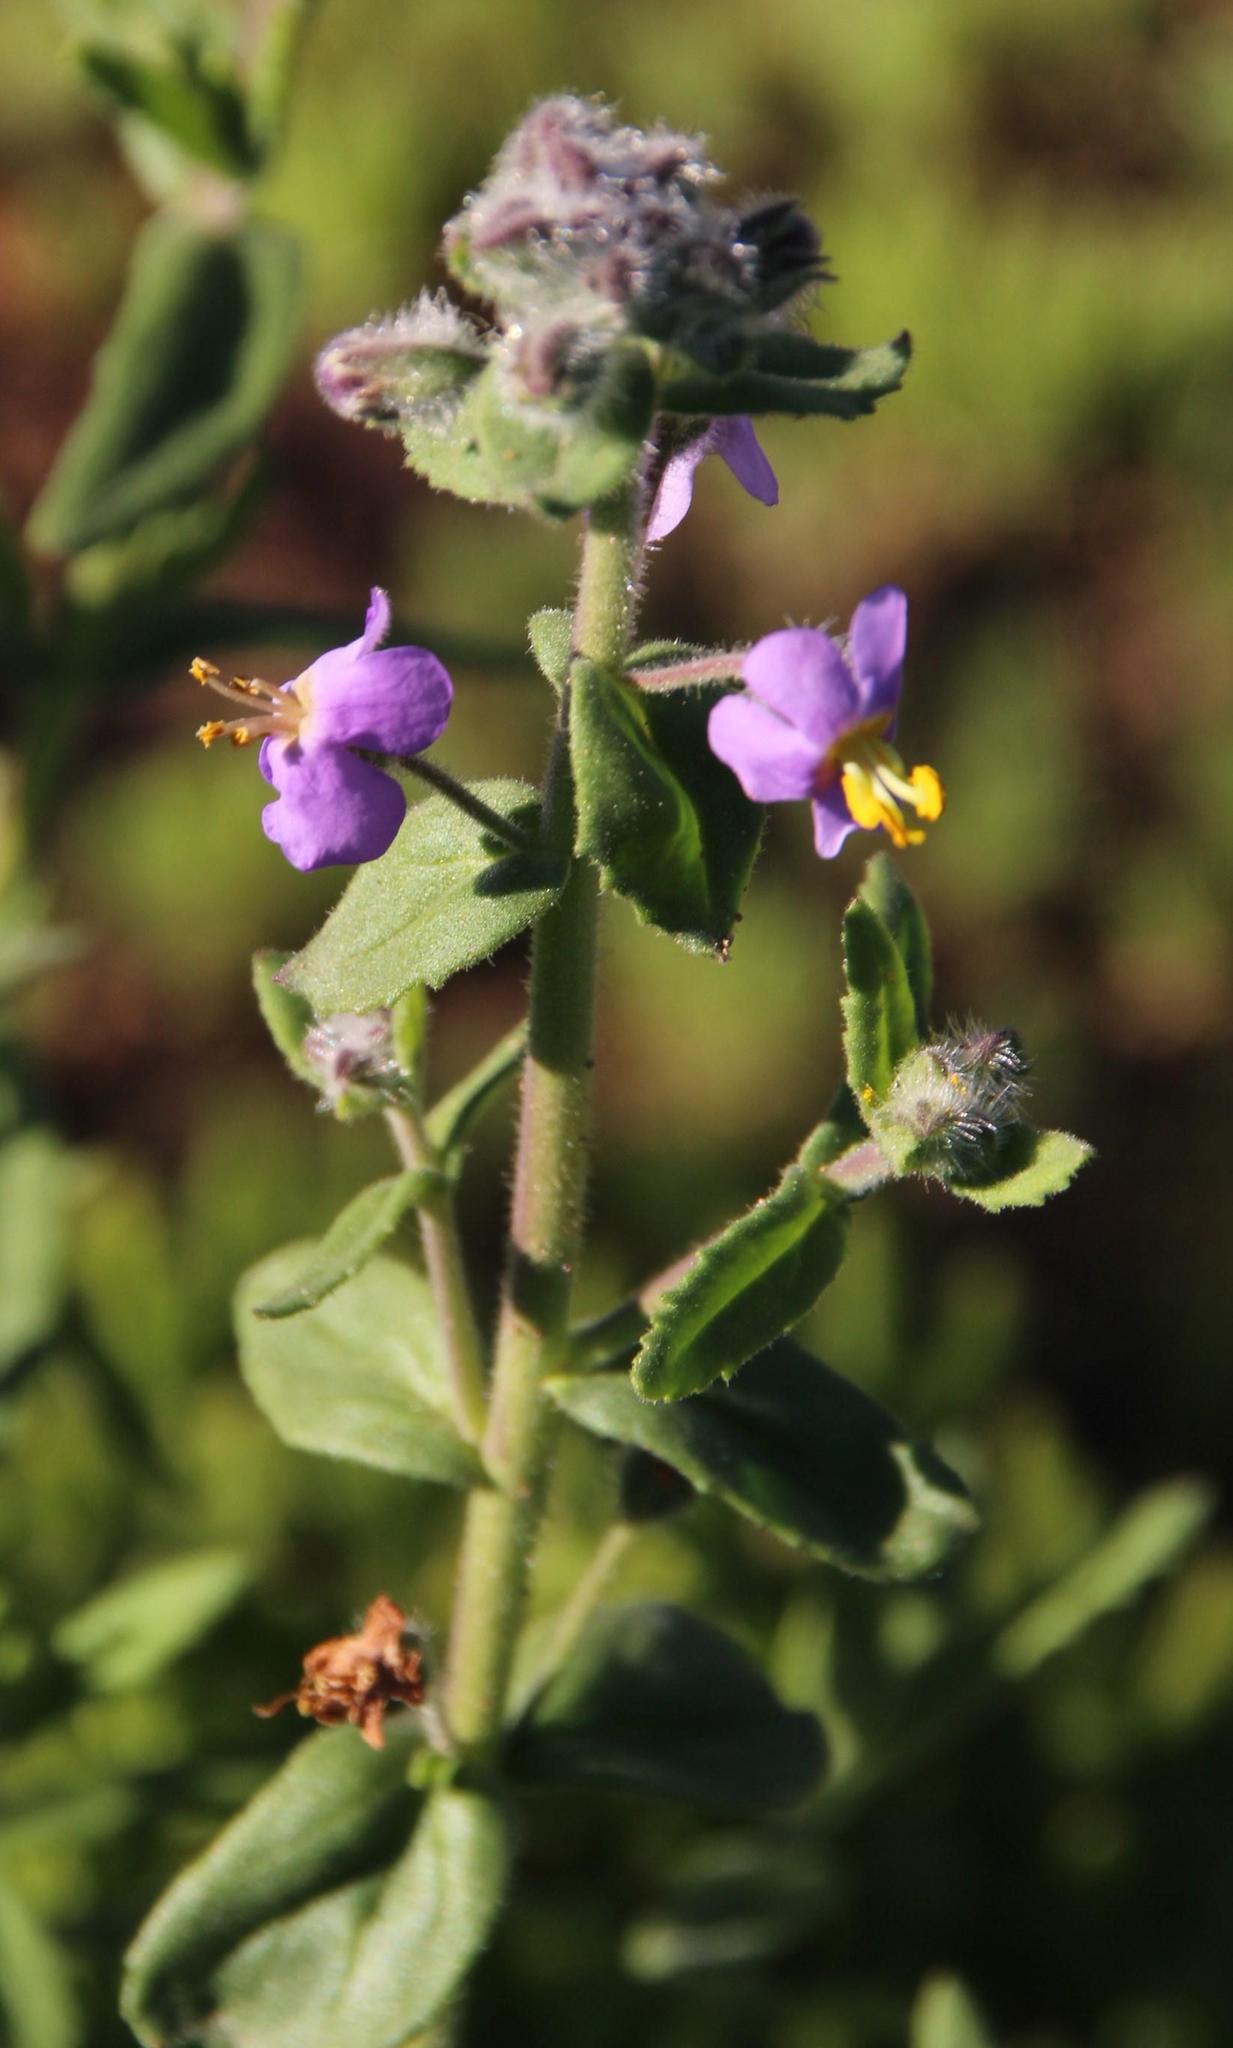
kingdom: Plantae
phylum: Tracheophyta
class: Magnoliopsida
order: Lamiales
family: Scrophulariaceae
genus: Chaenostoma
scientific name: Chaenostoma caeruleum
